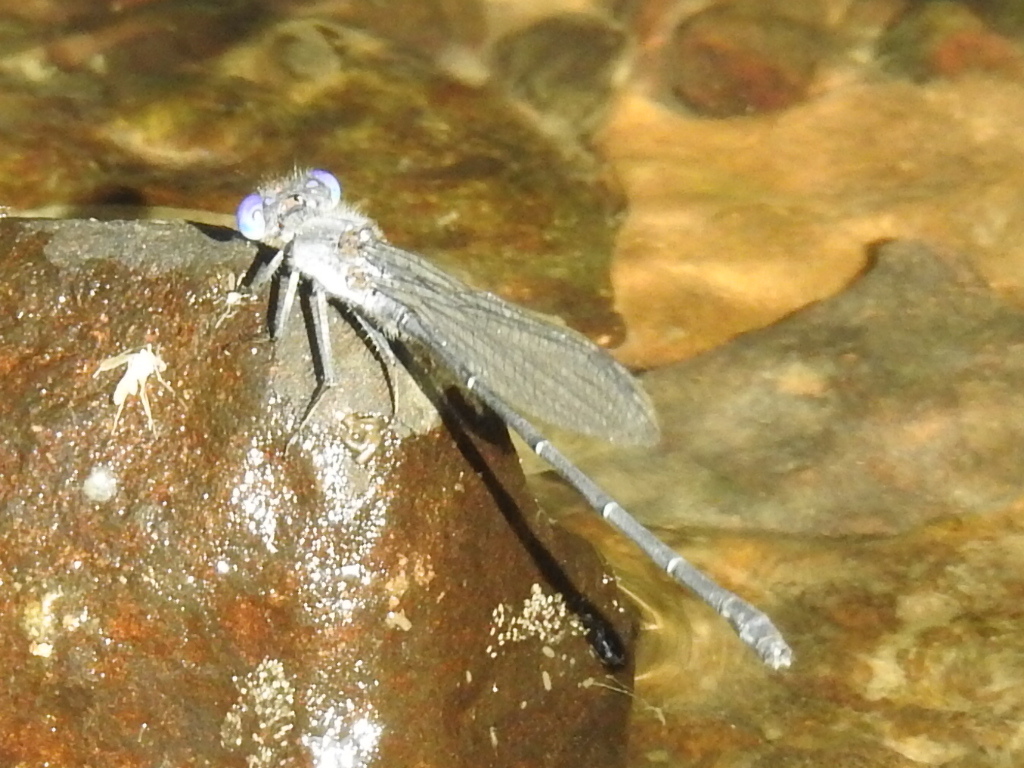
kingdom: Animalia
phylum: Arthropoda
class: Insecta
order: Odonata
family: Coenagrionidae
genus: Argia
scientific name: Argia translata
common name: Dusky dancer
